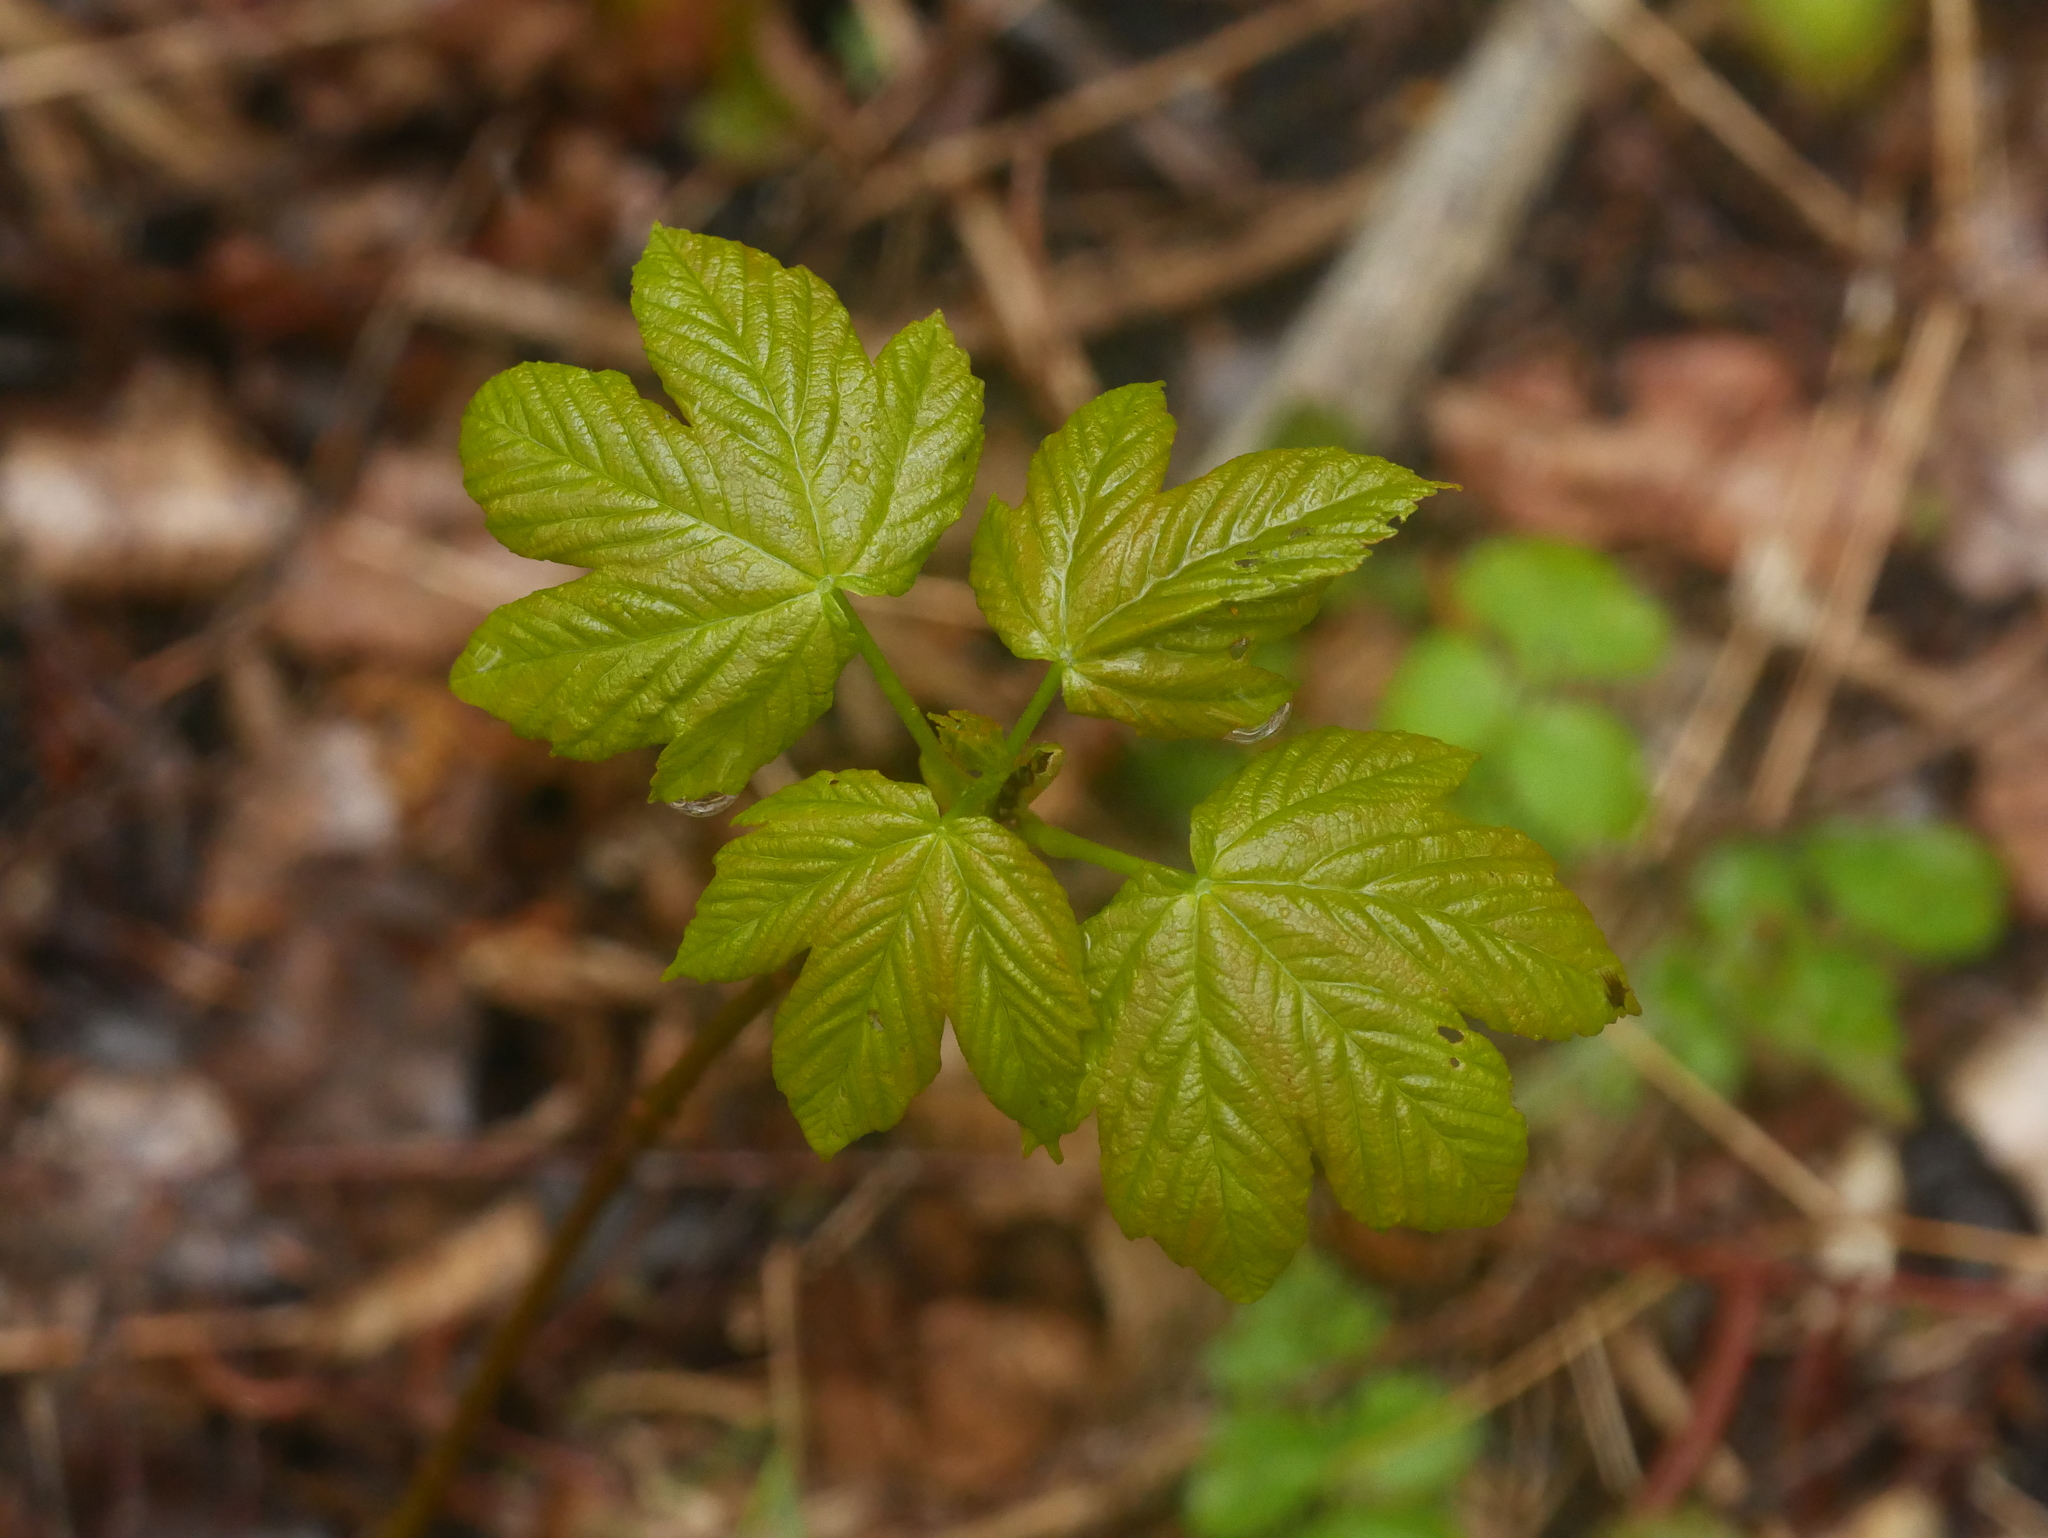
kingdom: Plantae
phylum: Tracheophyta
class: Magnoliopsida
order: Sapindales
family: Sapindaceae
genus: Acer
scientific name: Acer pseudoplatanus
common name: Sycamore
